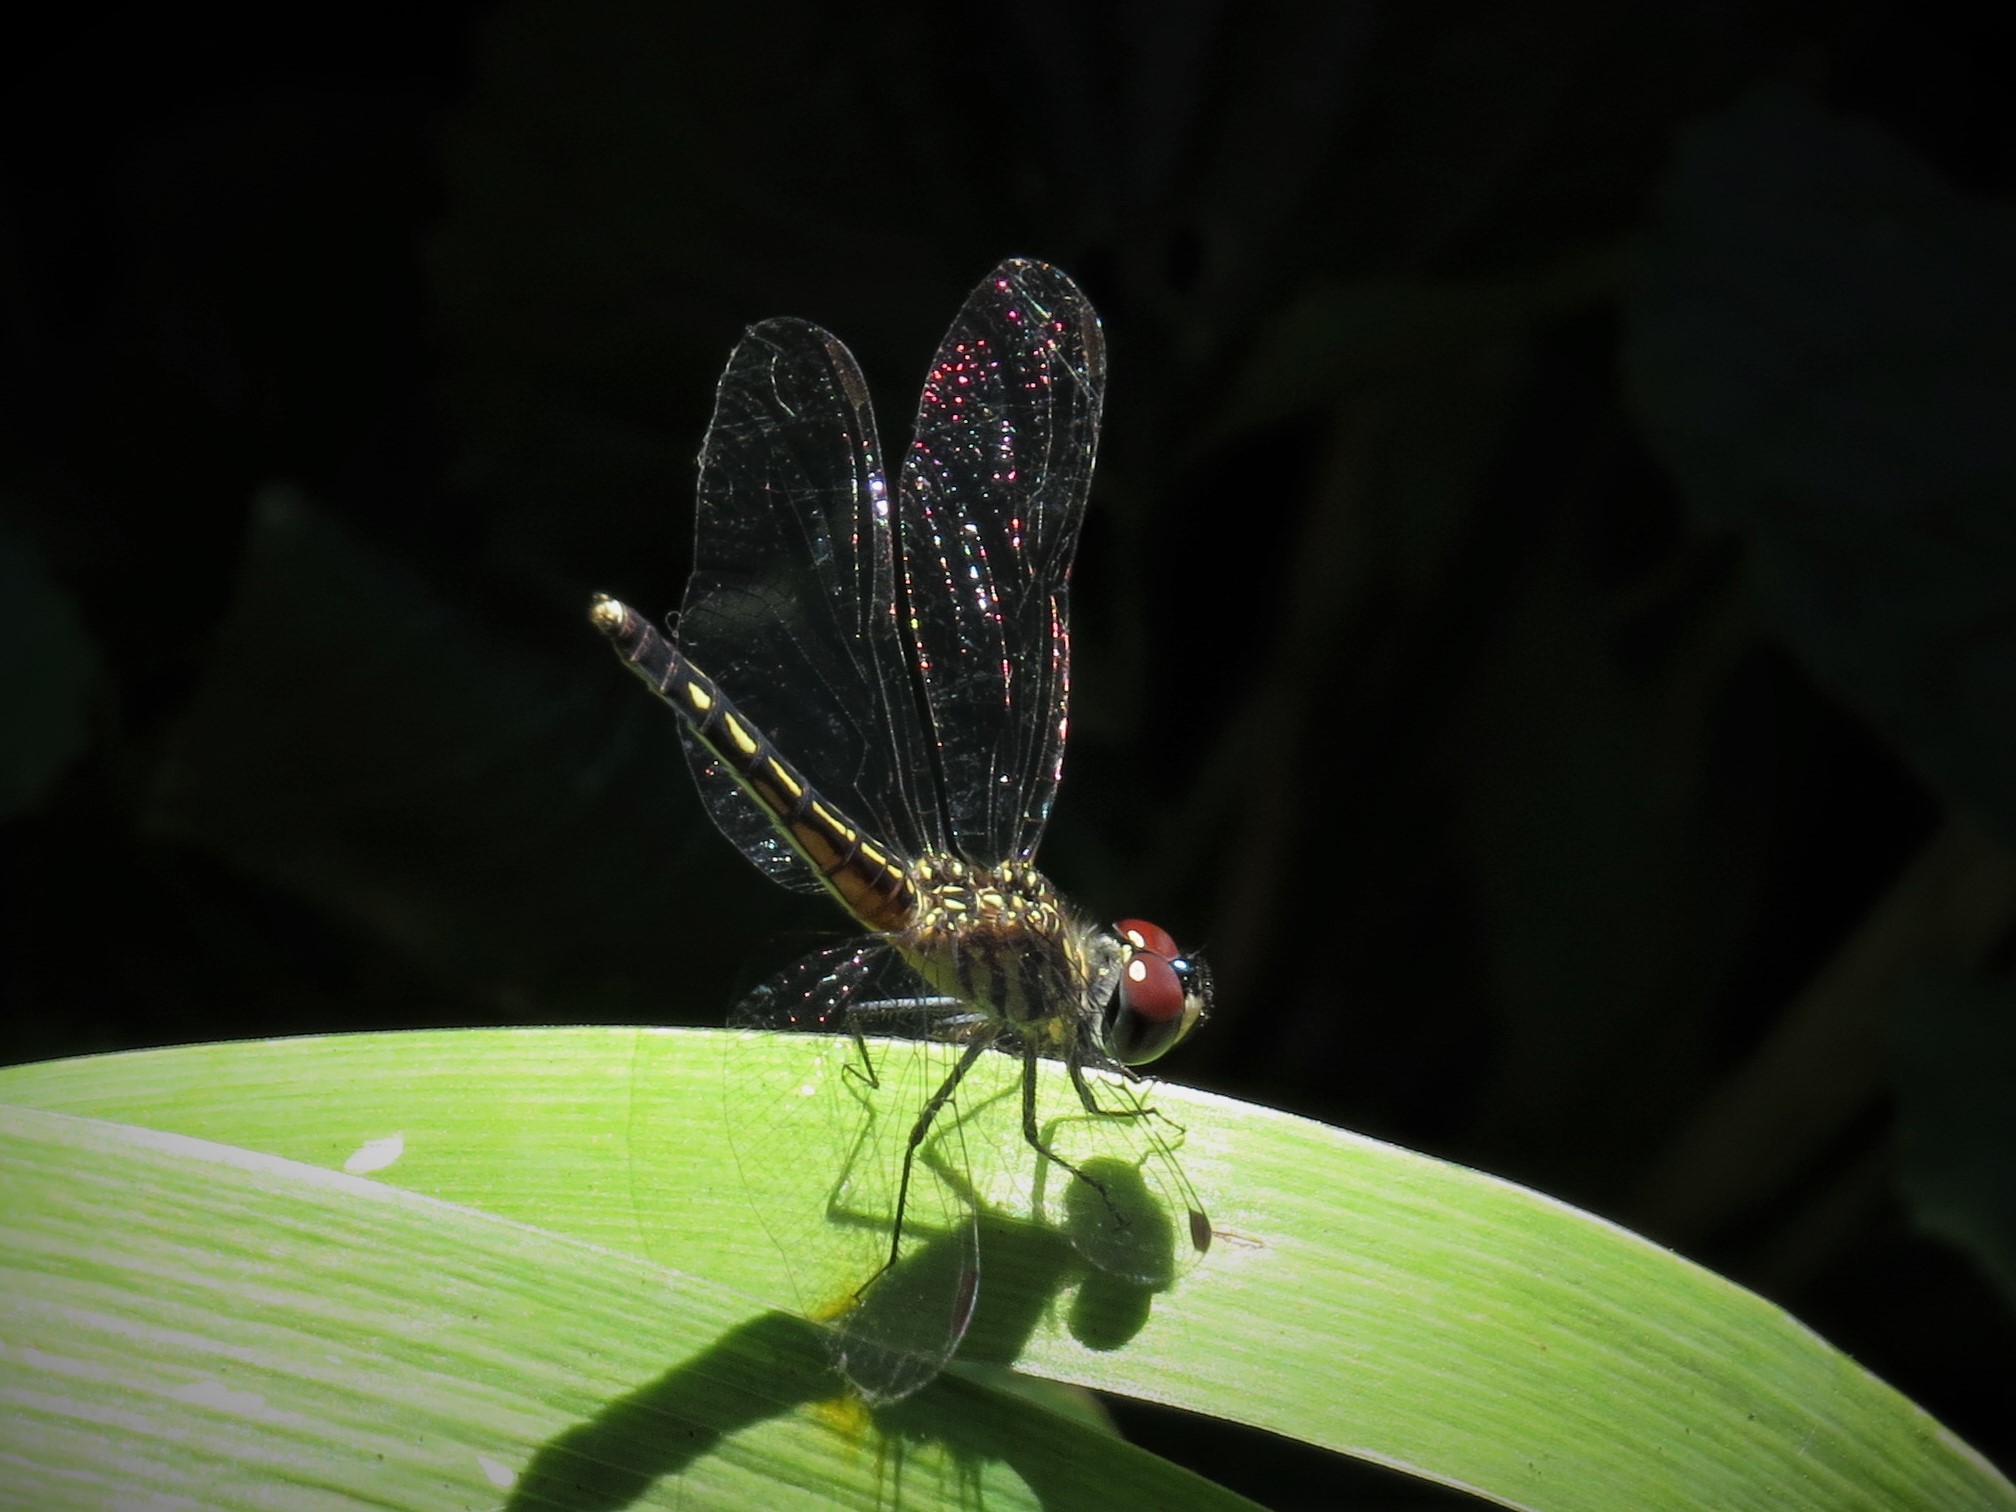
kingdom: Animalia
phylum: Arthropoda
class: Insecta
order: Odonata
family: Libellulidae
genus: Pachydiplax
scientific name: Pachydiplax longipennis
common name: Blue dasher
